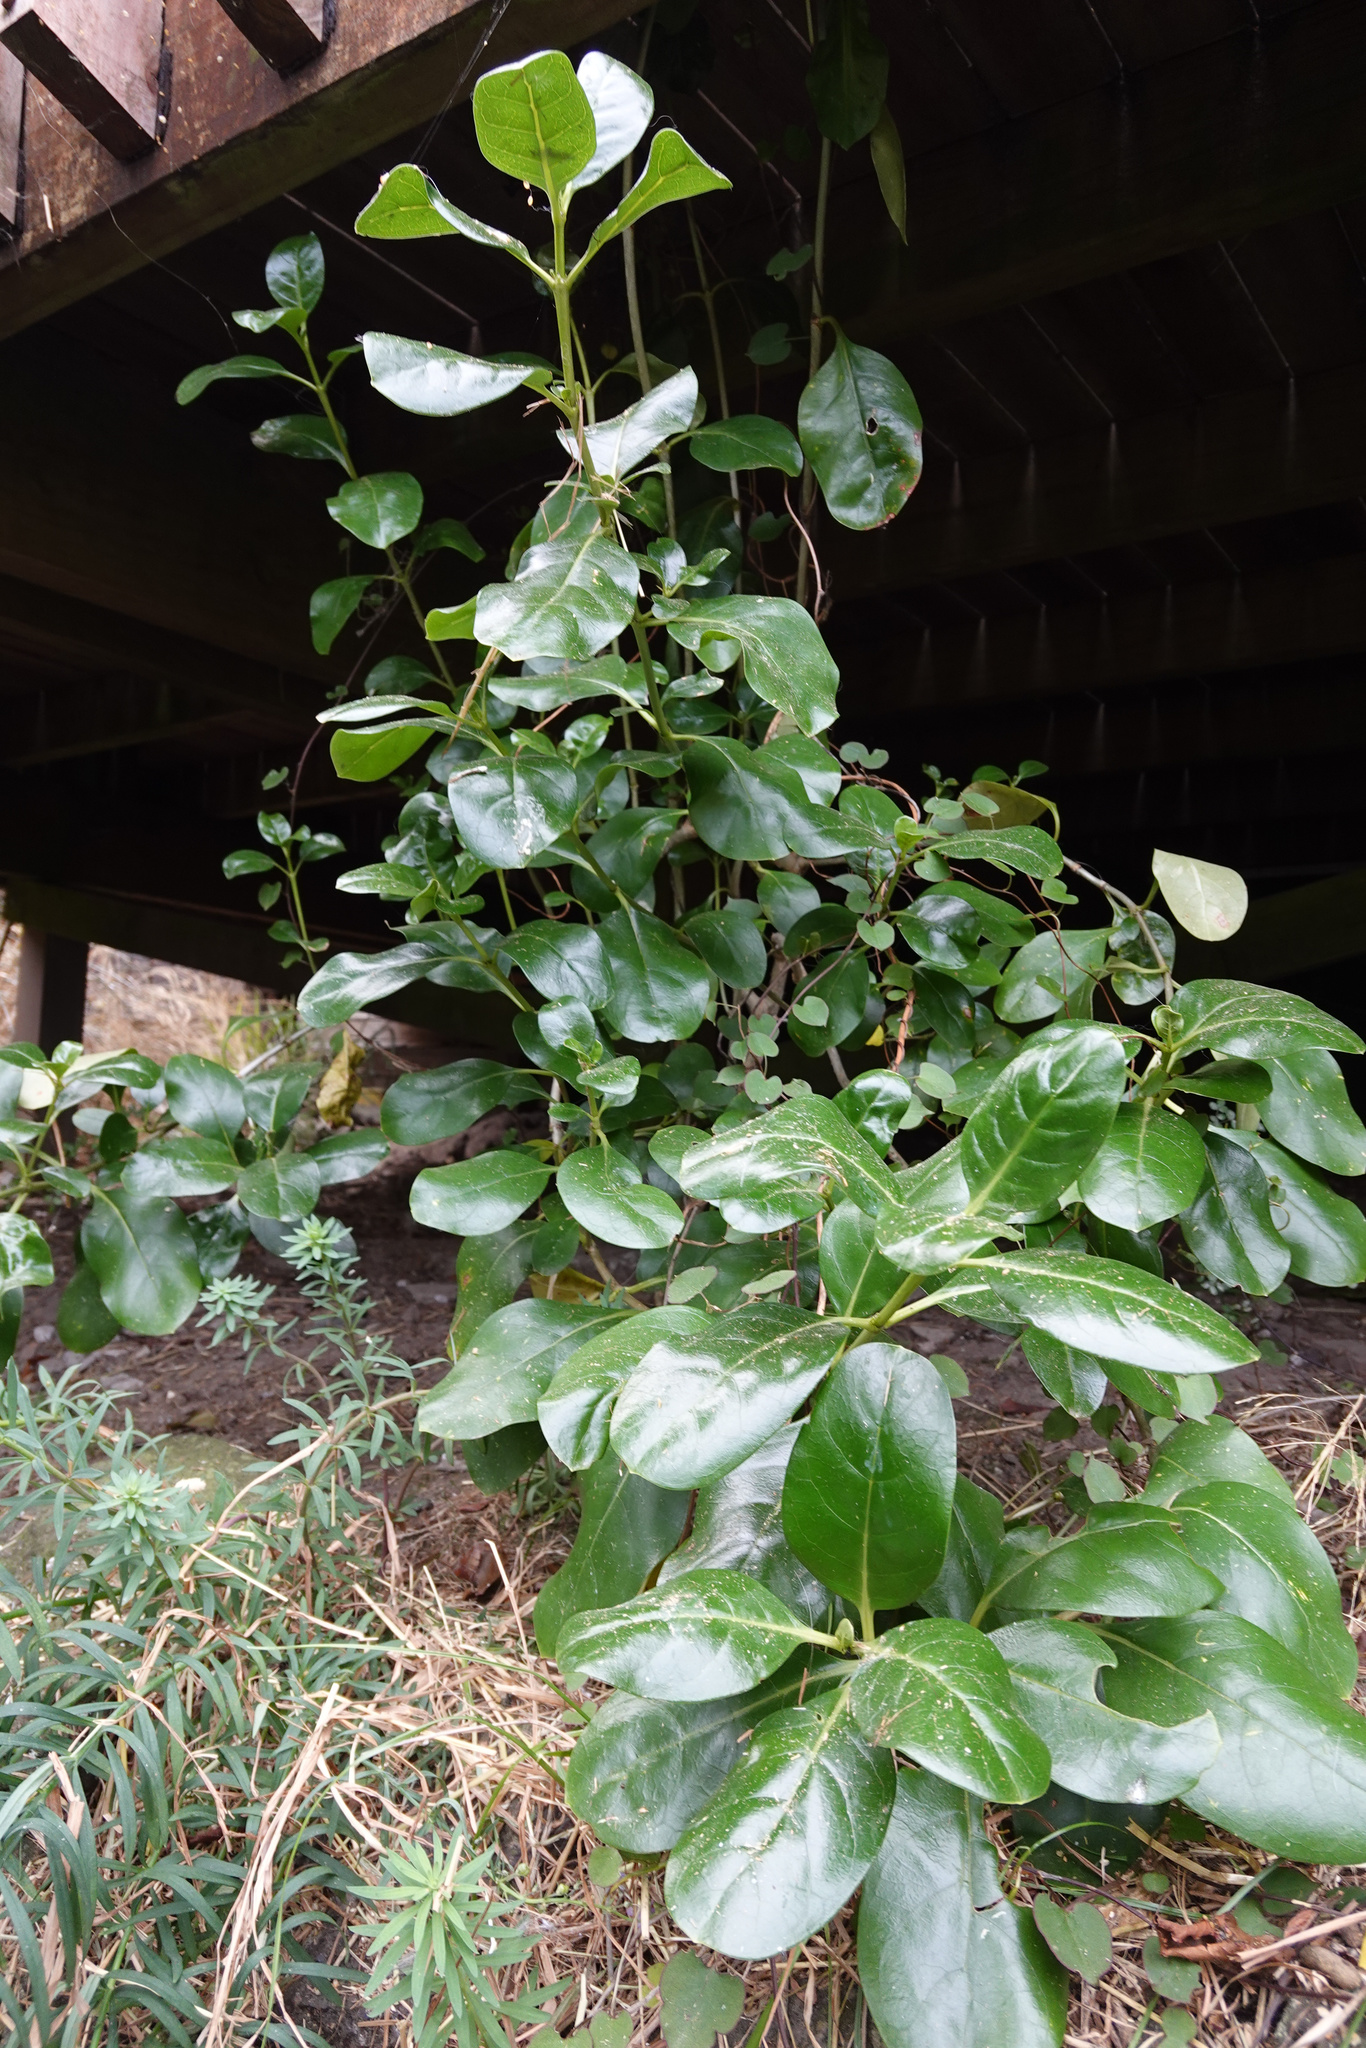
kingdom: Plantae
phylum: Tracheophyta
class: Magnoliopsida
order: Gentianales
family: Rubiaceae
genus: Coprosma
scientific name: Coprosma repens
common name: Tree bedstraw
